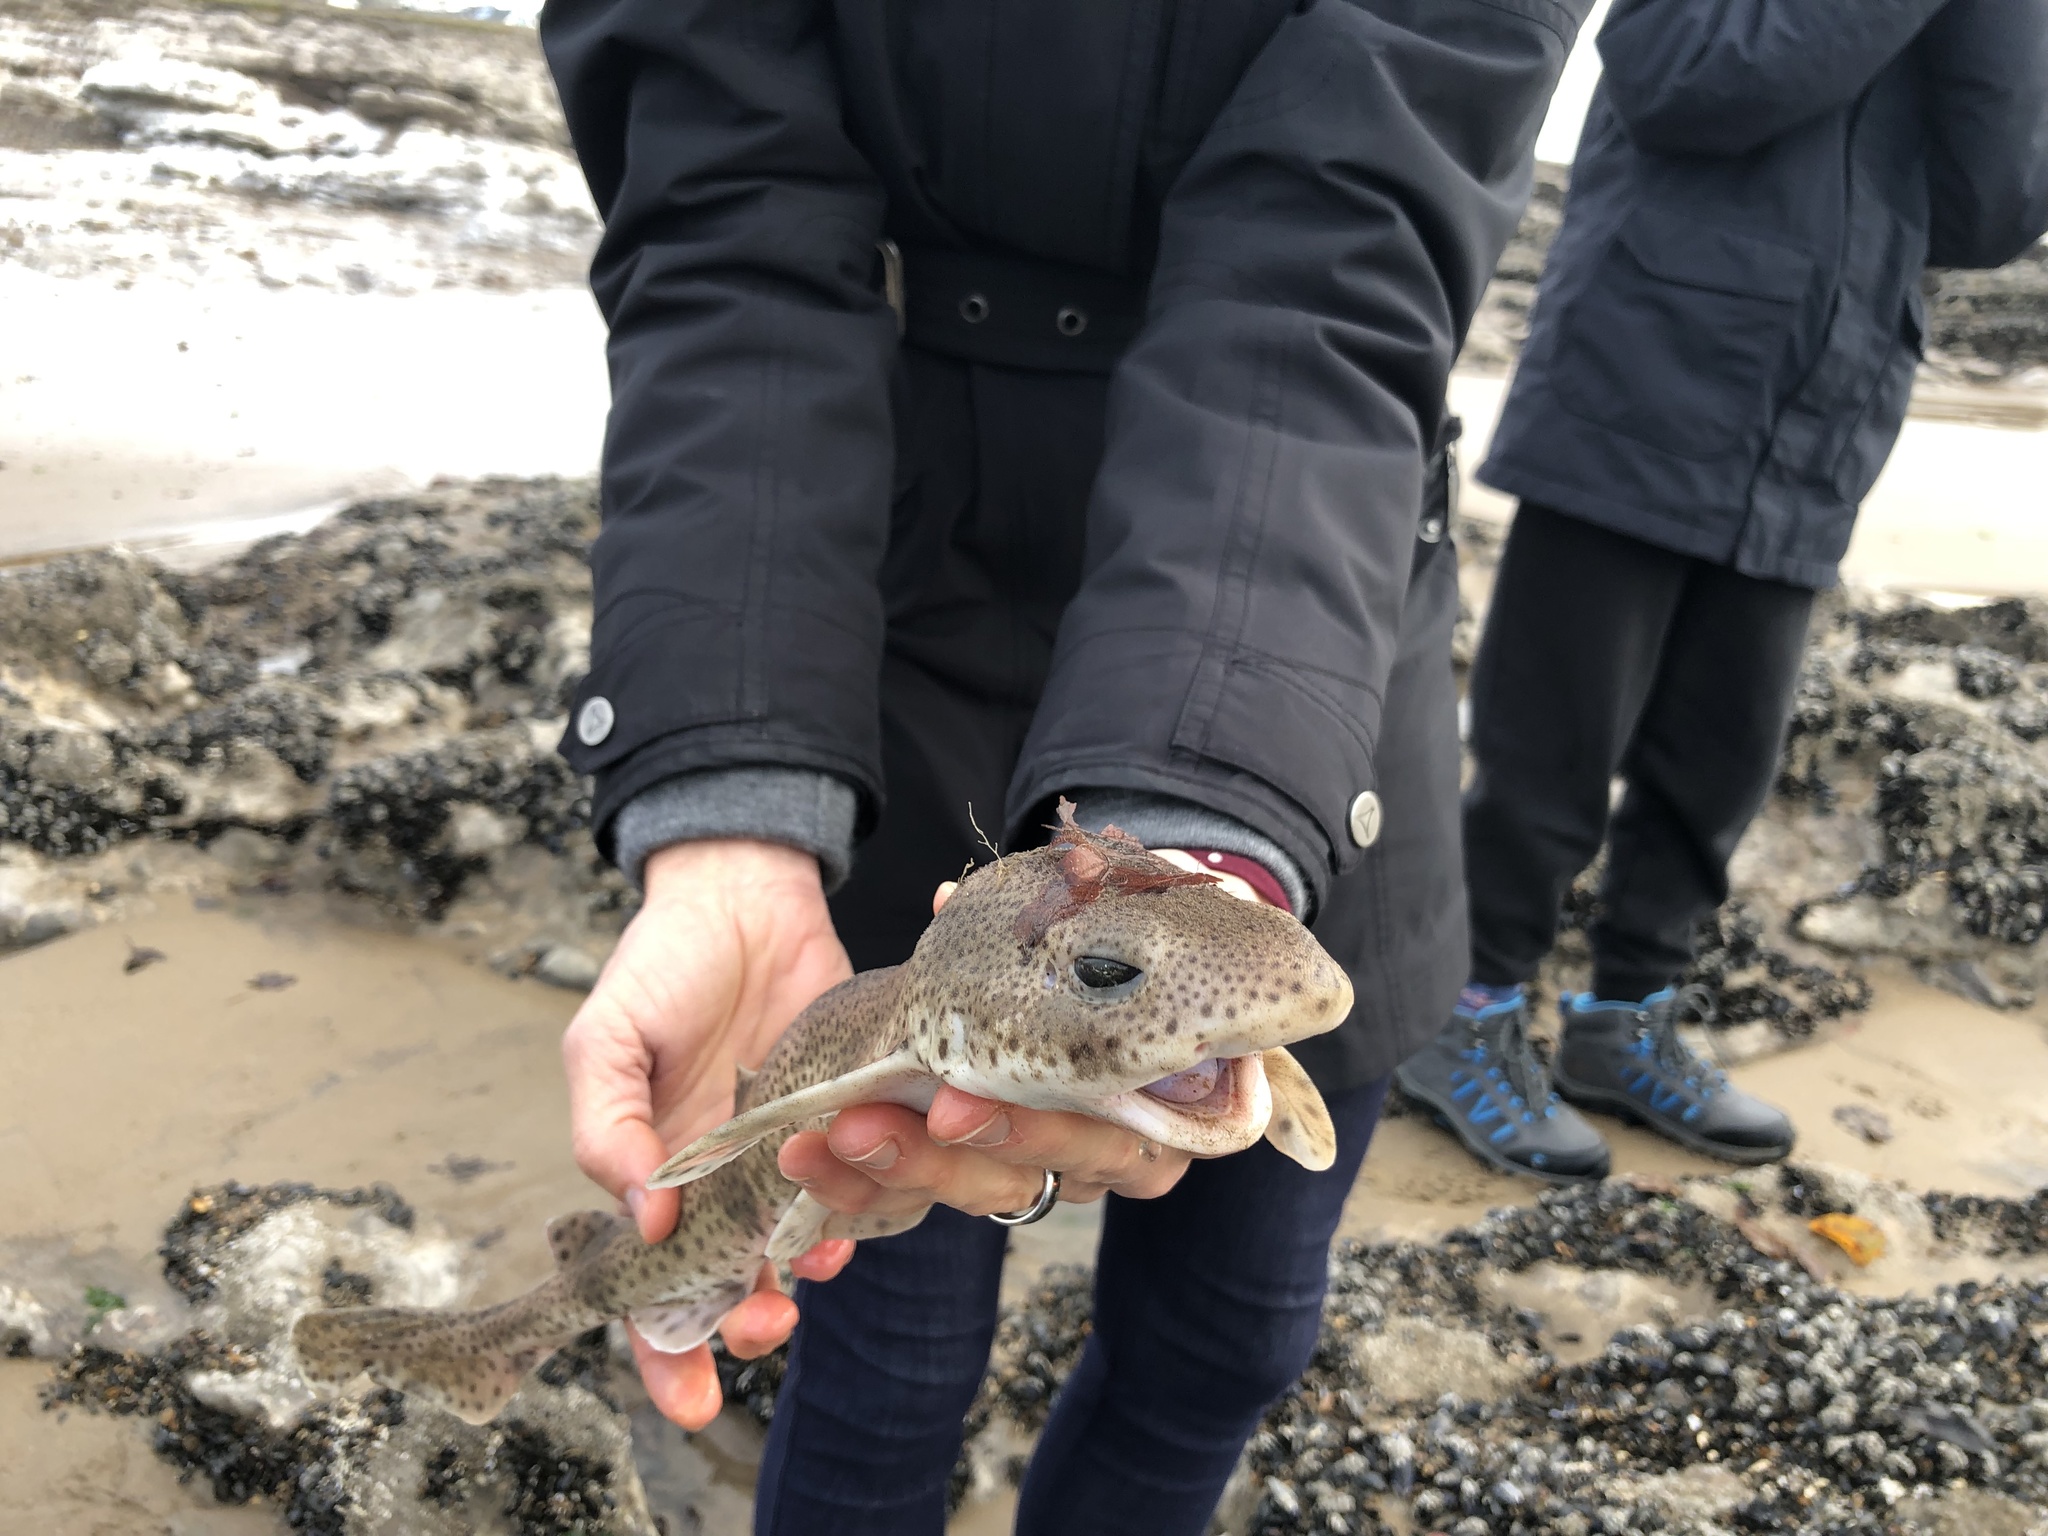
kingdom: Animalia
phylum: Chordata
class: Elasmobranchii
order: Carcharhiniformes
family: Scyliorhinidae
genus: Scyliorhinus
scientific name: Scyliorhinus canicula
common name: Lesser spotted dogfish
